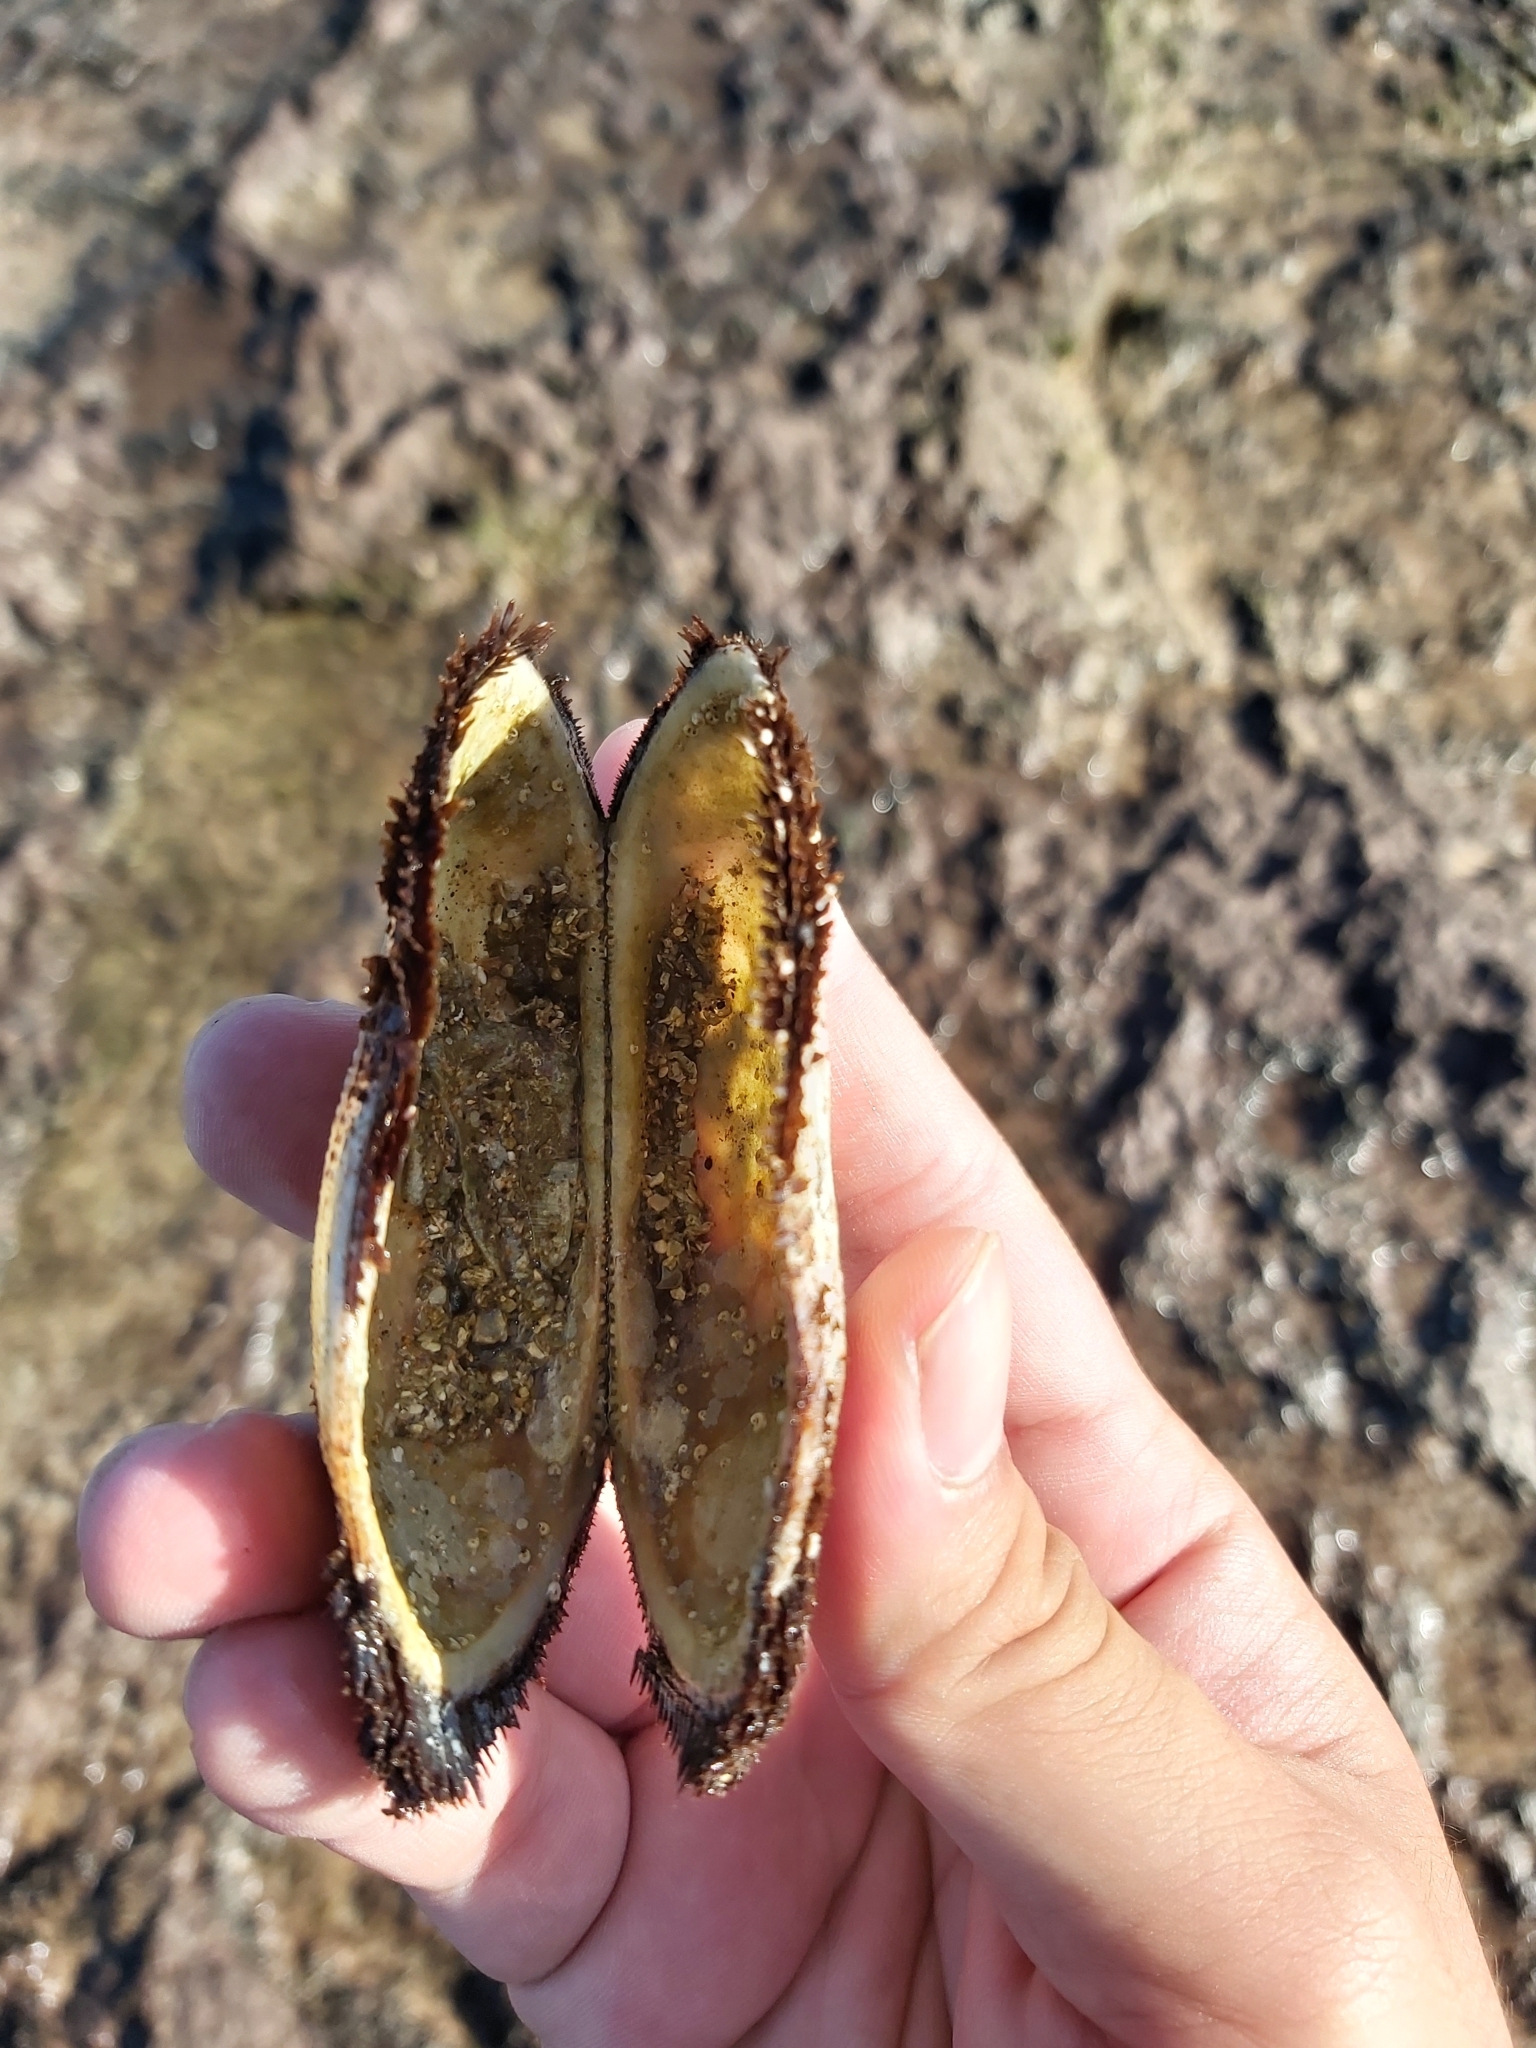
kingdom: Animalia
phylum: Mollusca
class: Bivalvia
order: Arcida
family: Arcidae
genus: Barbatia
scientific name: Barbatia pistachia
